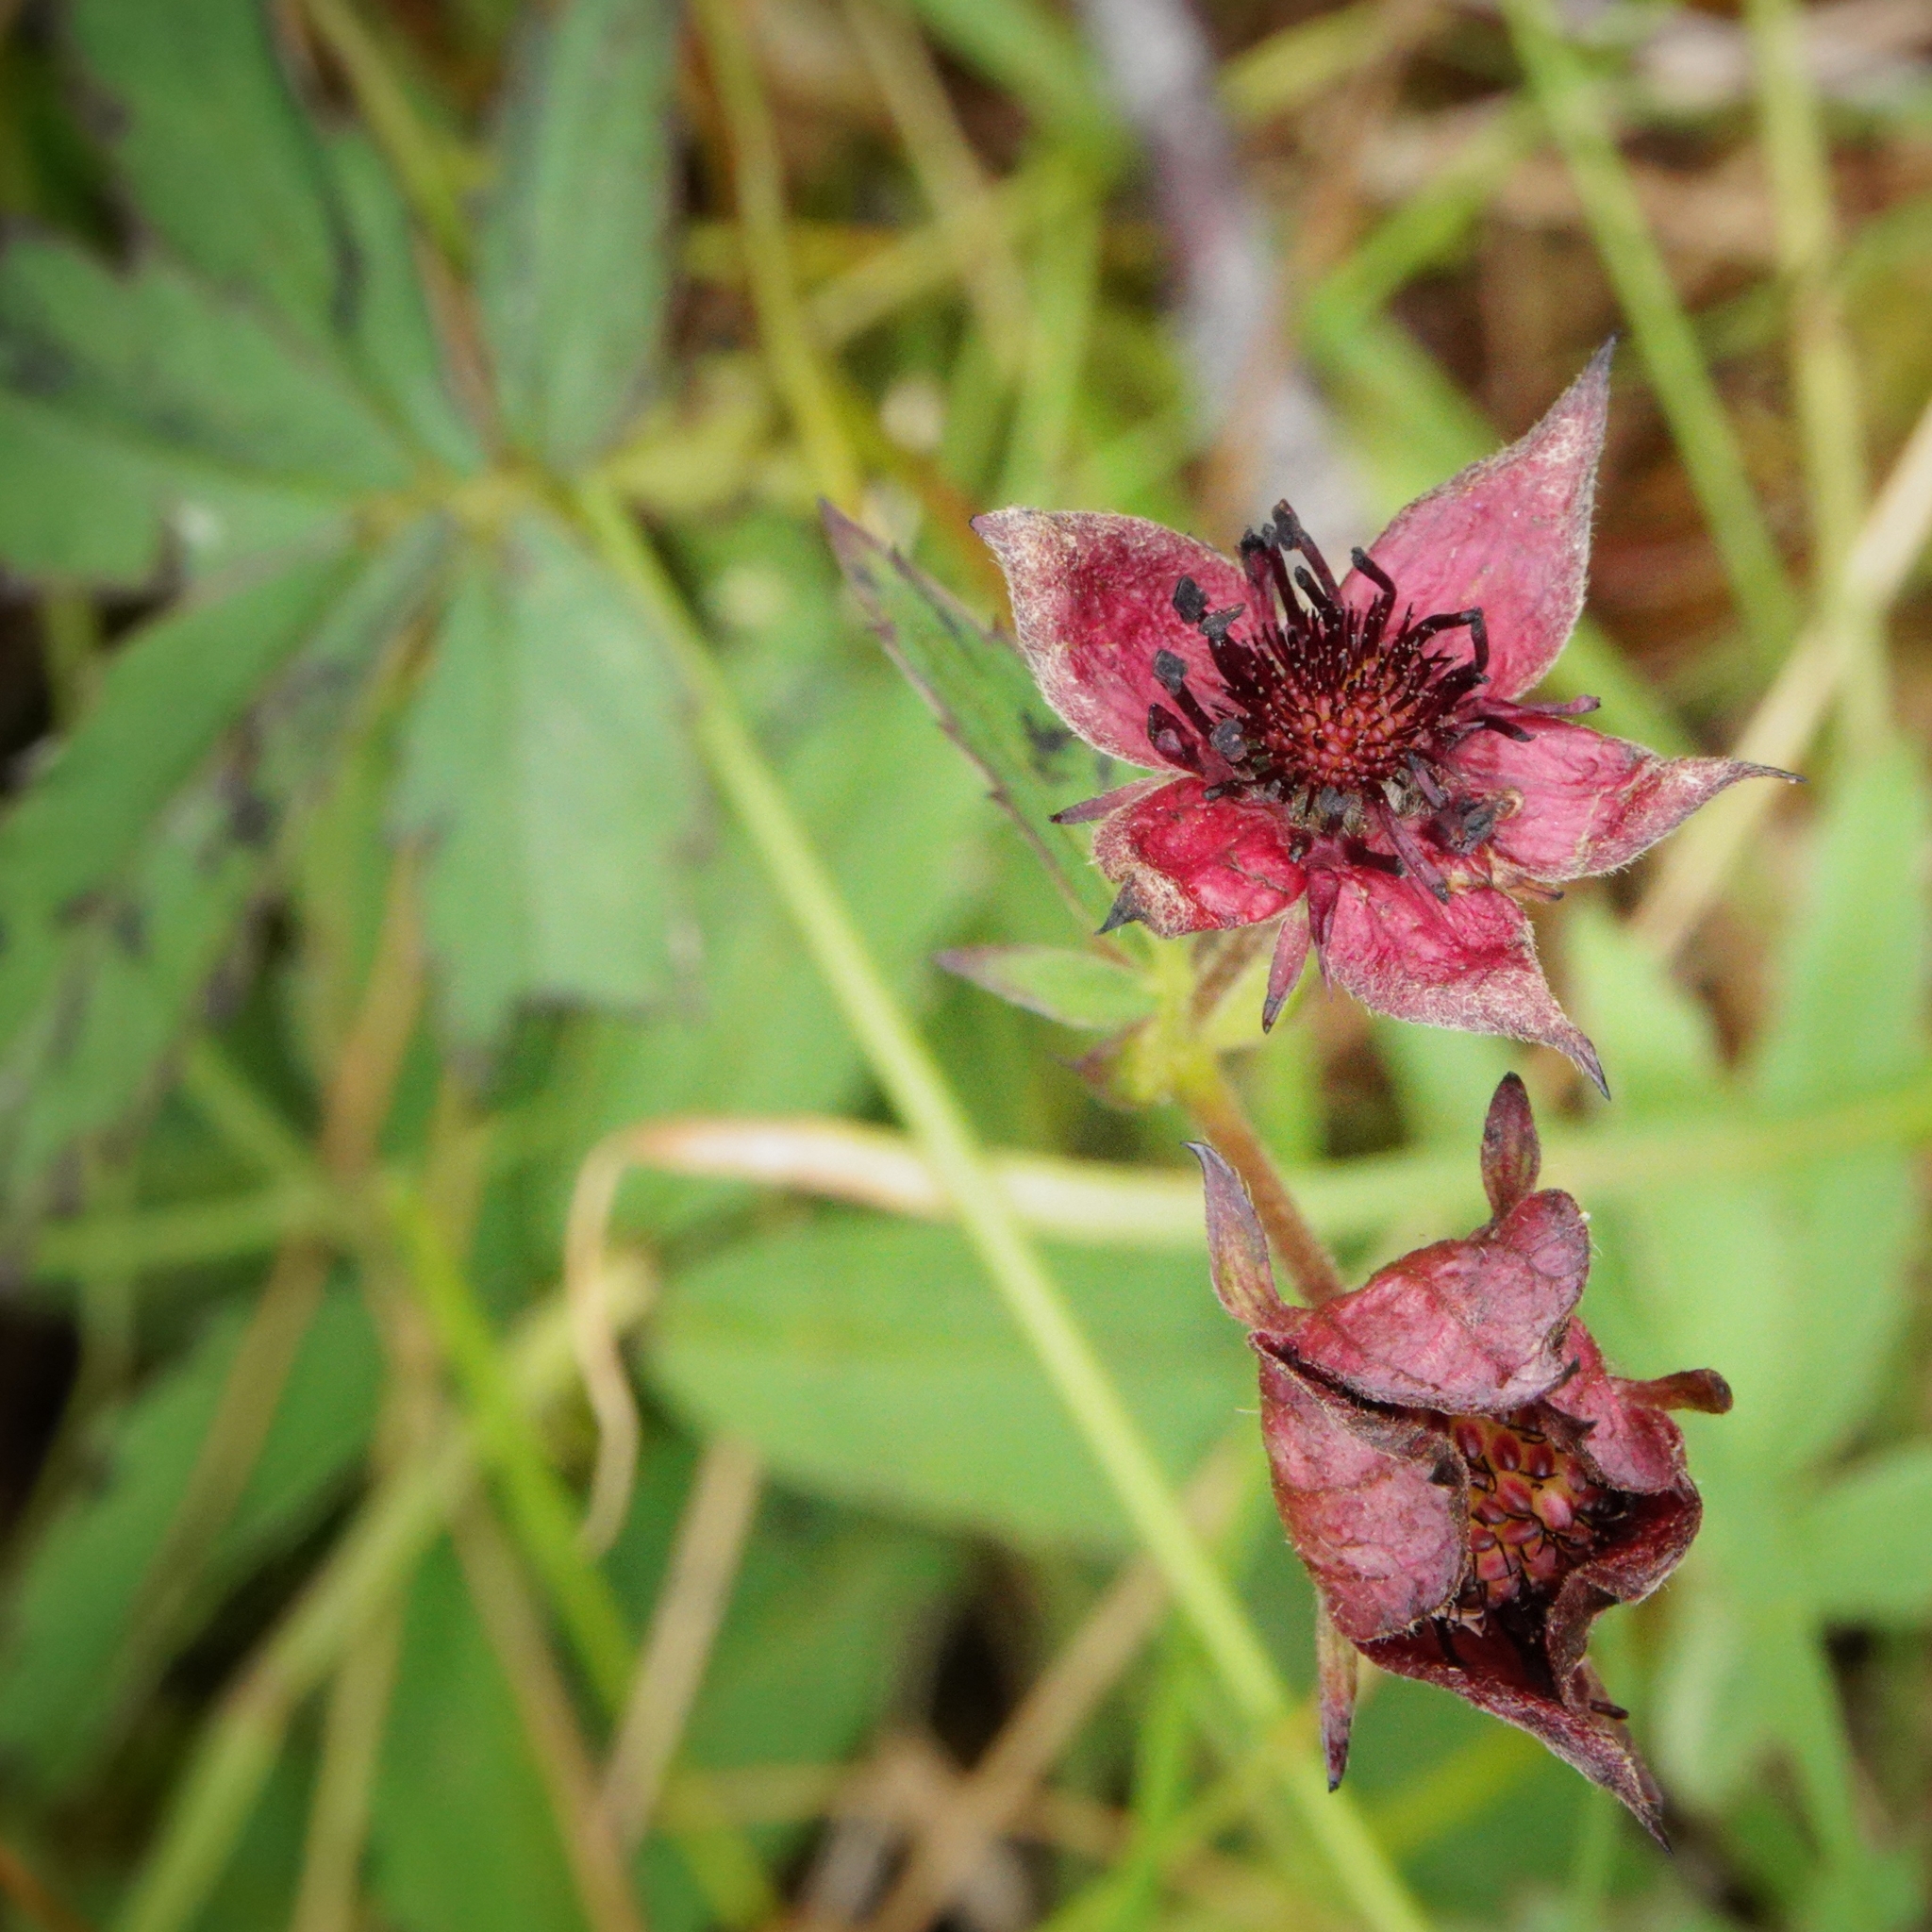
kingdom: Plantae
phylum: Tracheophyta
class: Magnoliopsida
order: Rosales
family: Rosaceae
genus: Comarum
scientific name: Comarum palustre
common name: Marsh cinquefoil
